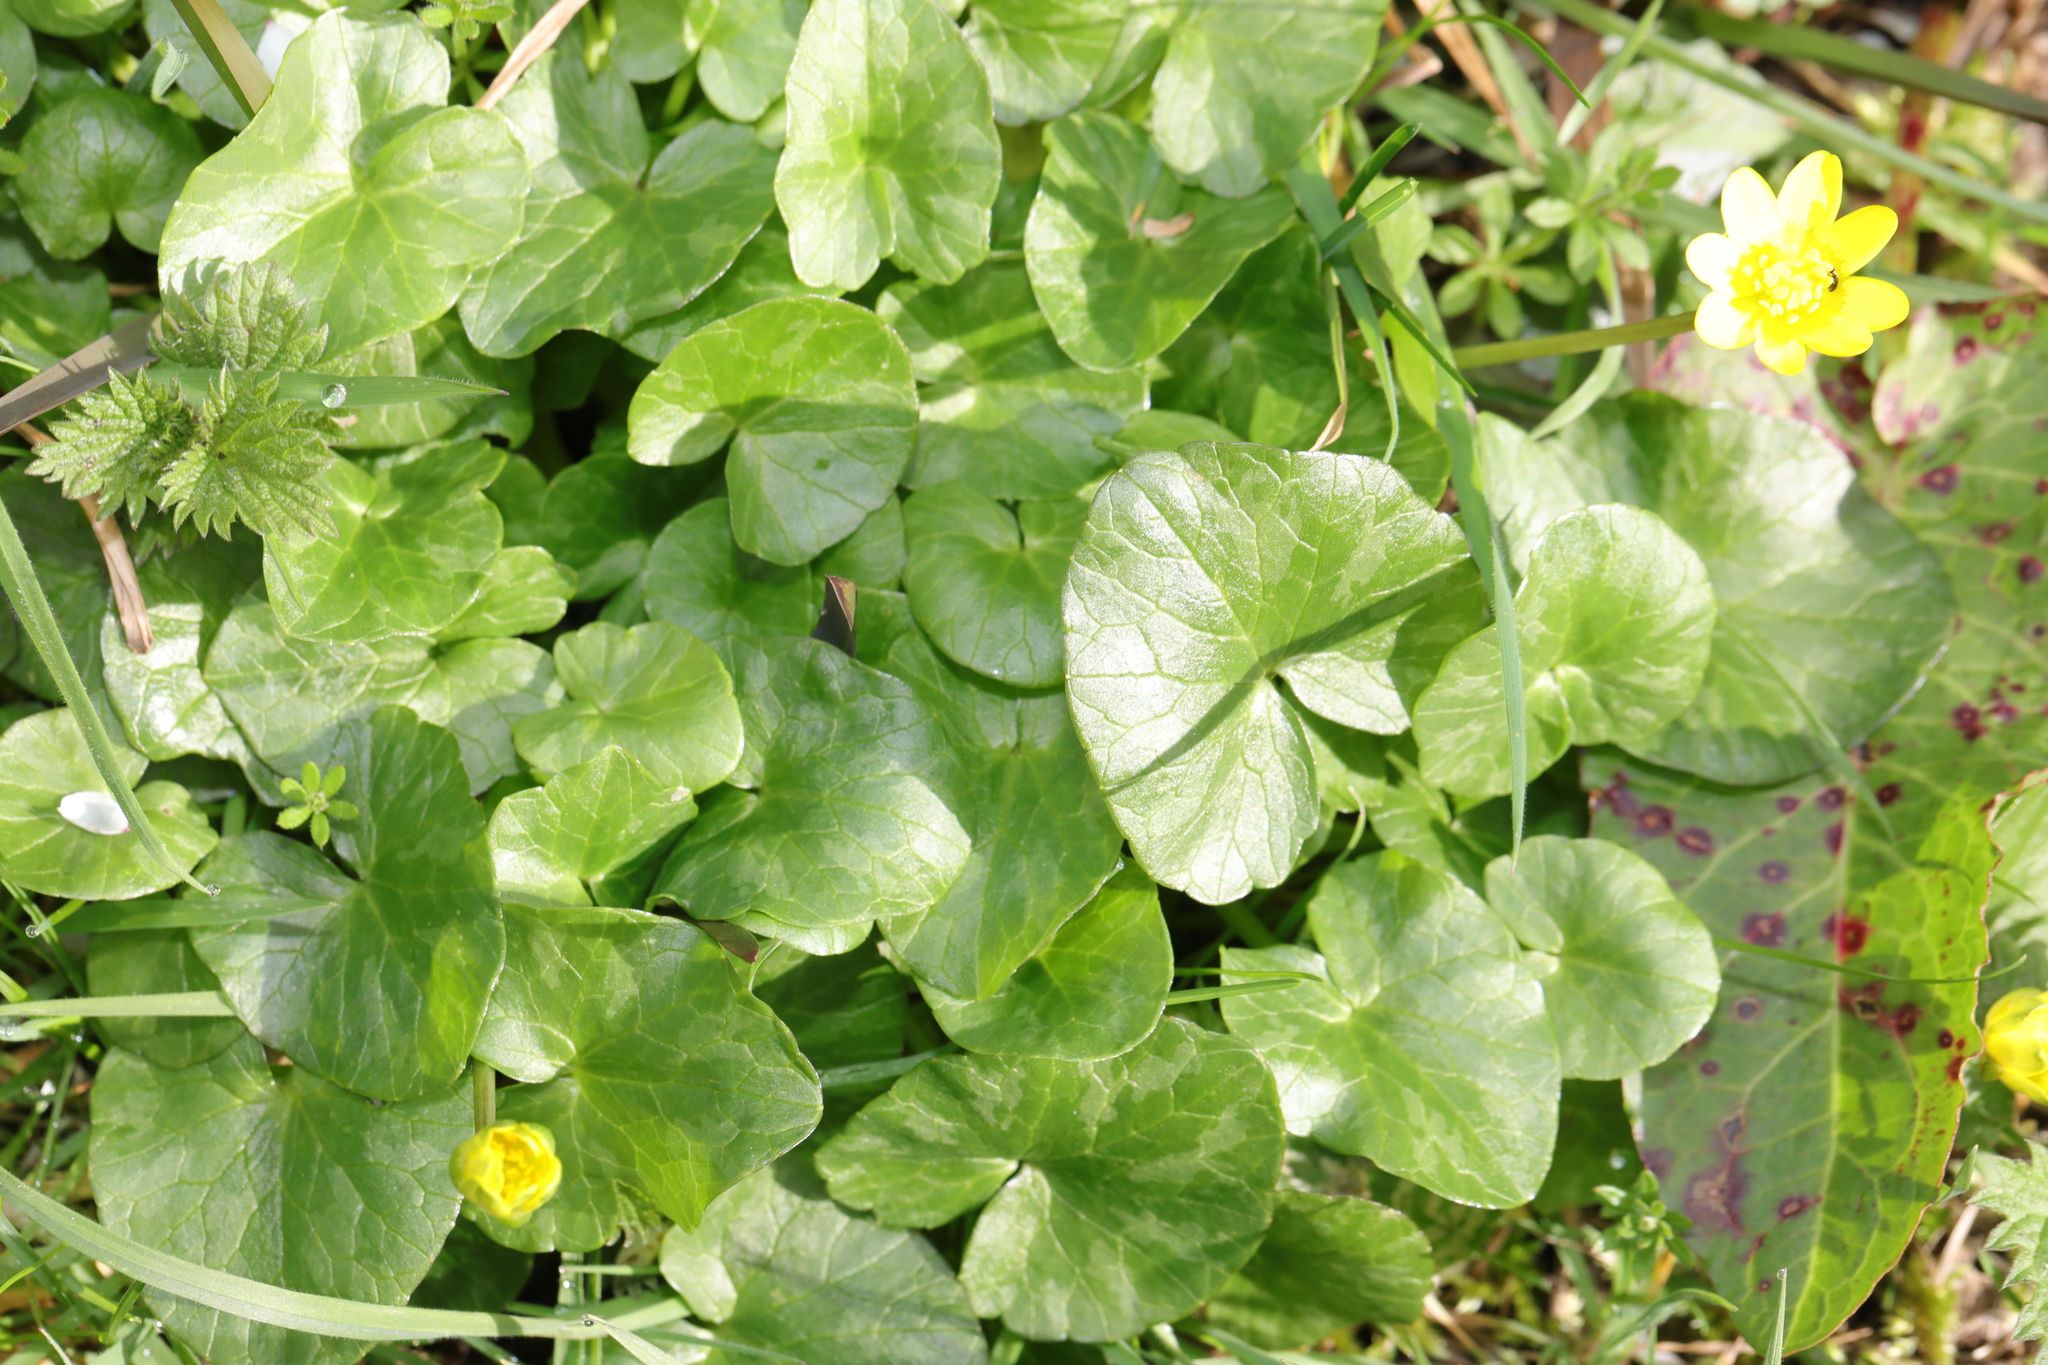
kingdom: Plantae
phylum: Tracheophyta
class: Magnoliopsida
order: Ranunculales
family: Ranunculaceae
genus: Ficaria
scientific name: Ficaria verna
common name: Lesser celandine
